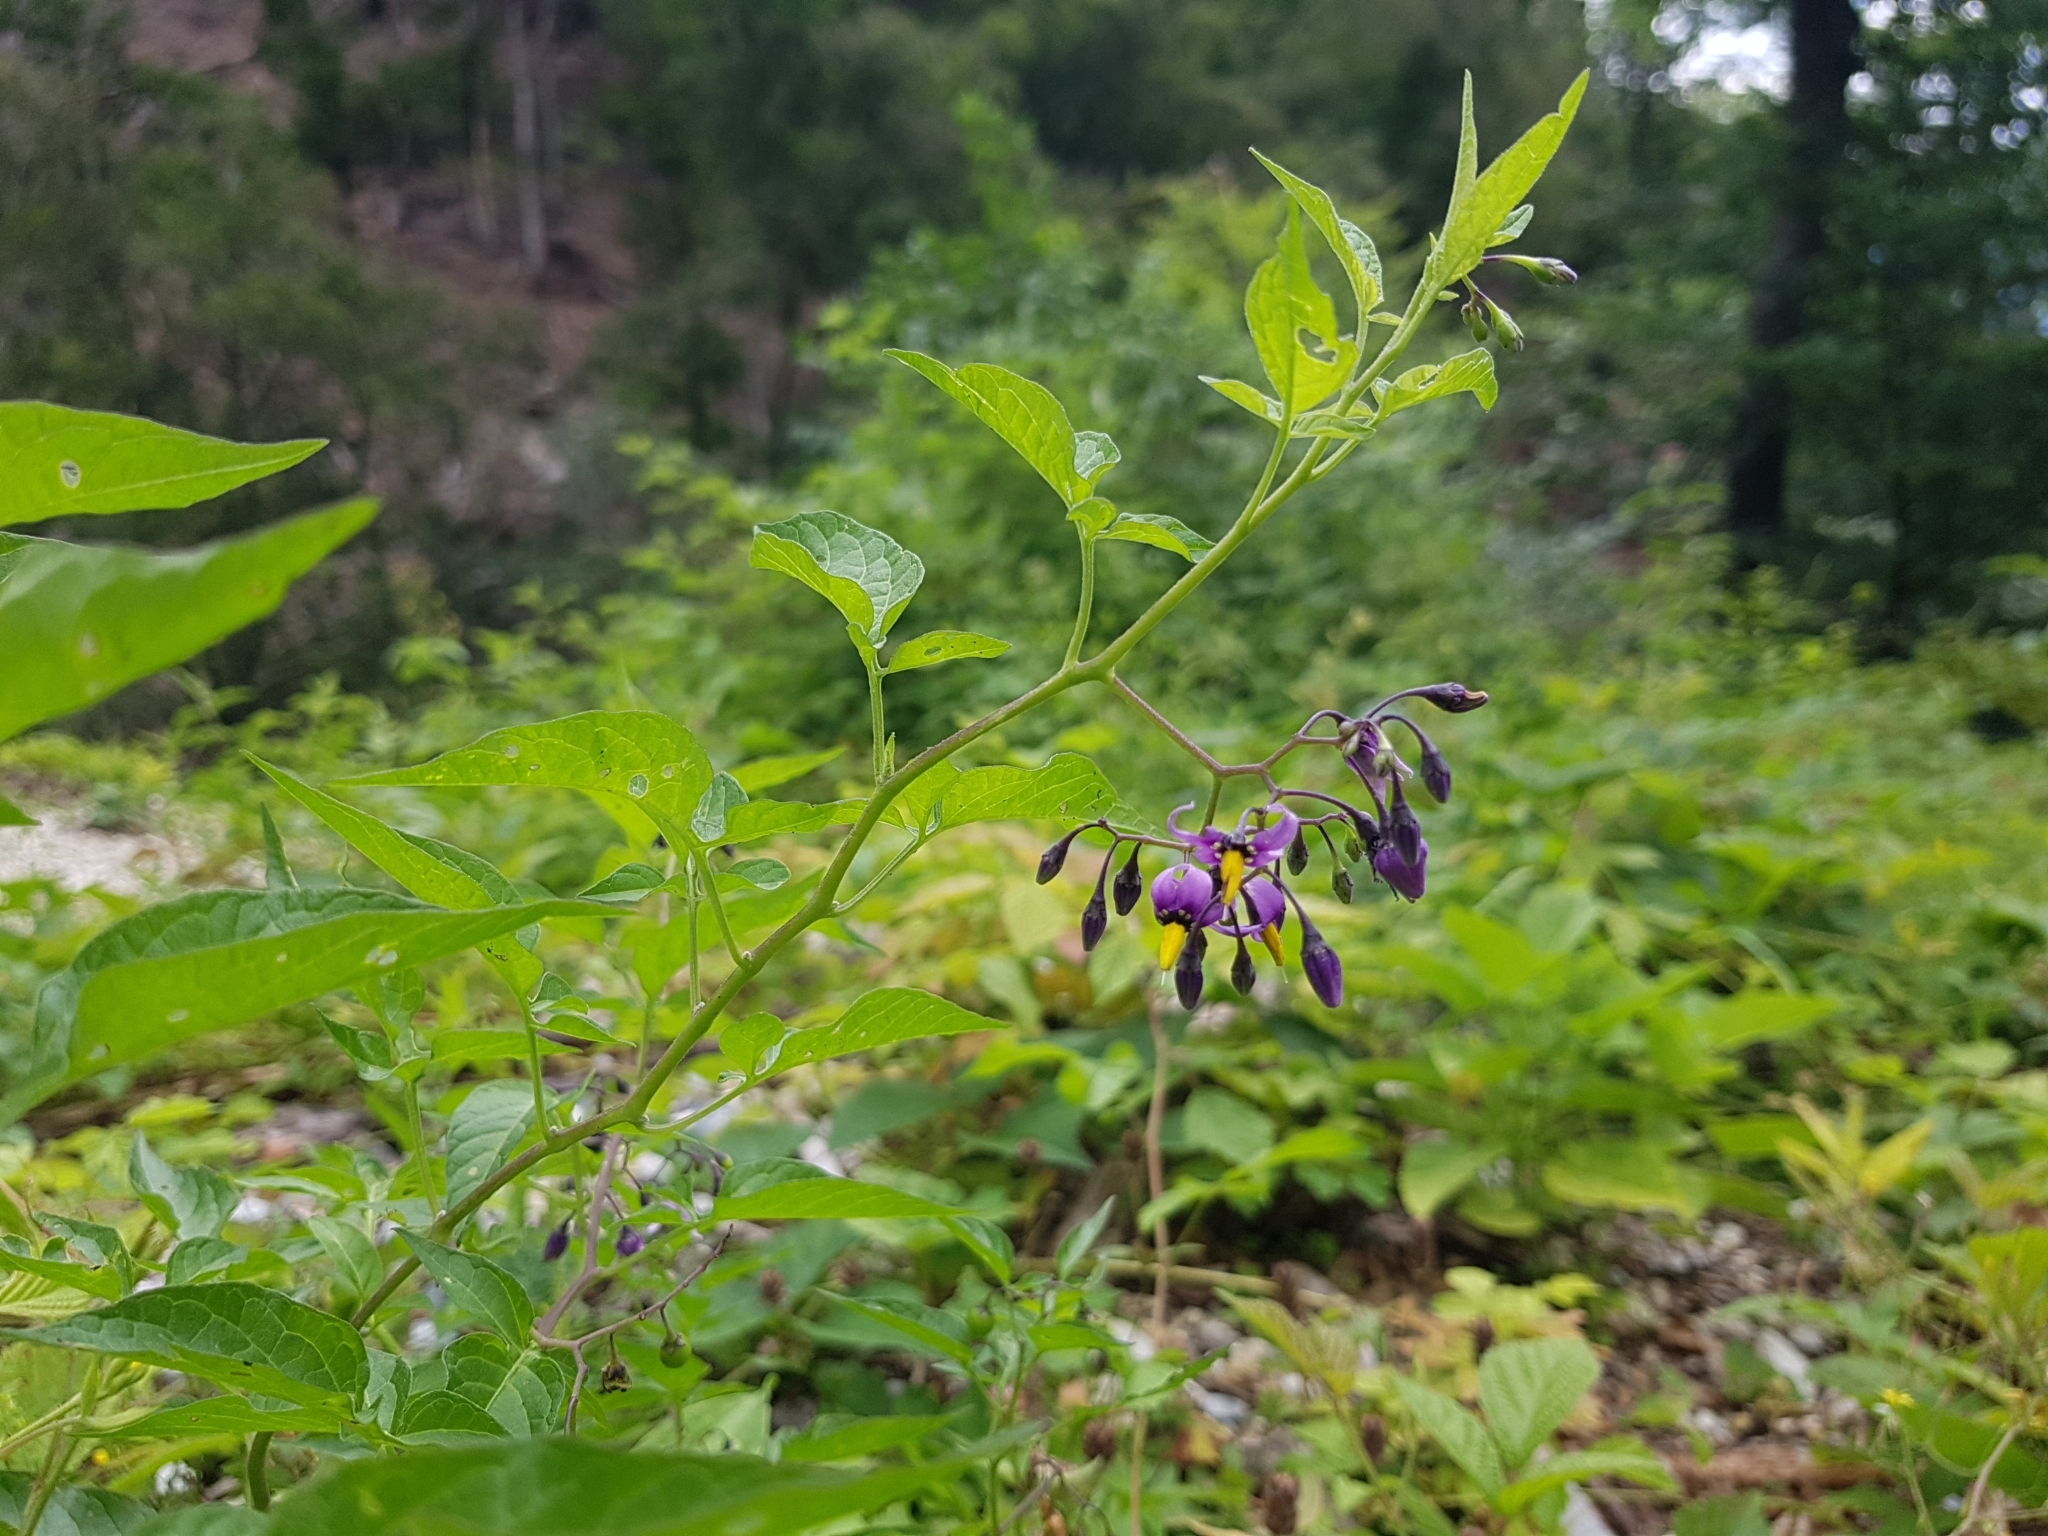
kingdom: Plantae
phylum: Tracheophyta
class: Magnoliopsida
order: Solanales
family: Solanaceae
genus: Solanum
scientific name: Solanum dulcamara
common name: Climbing nightshade
